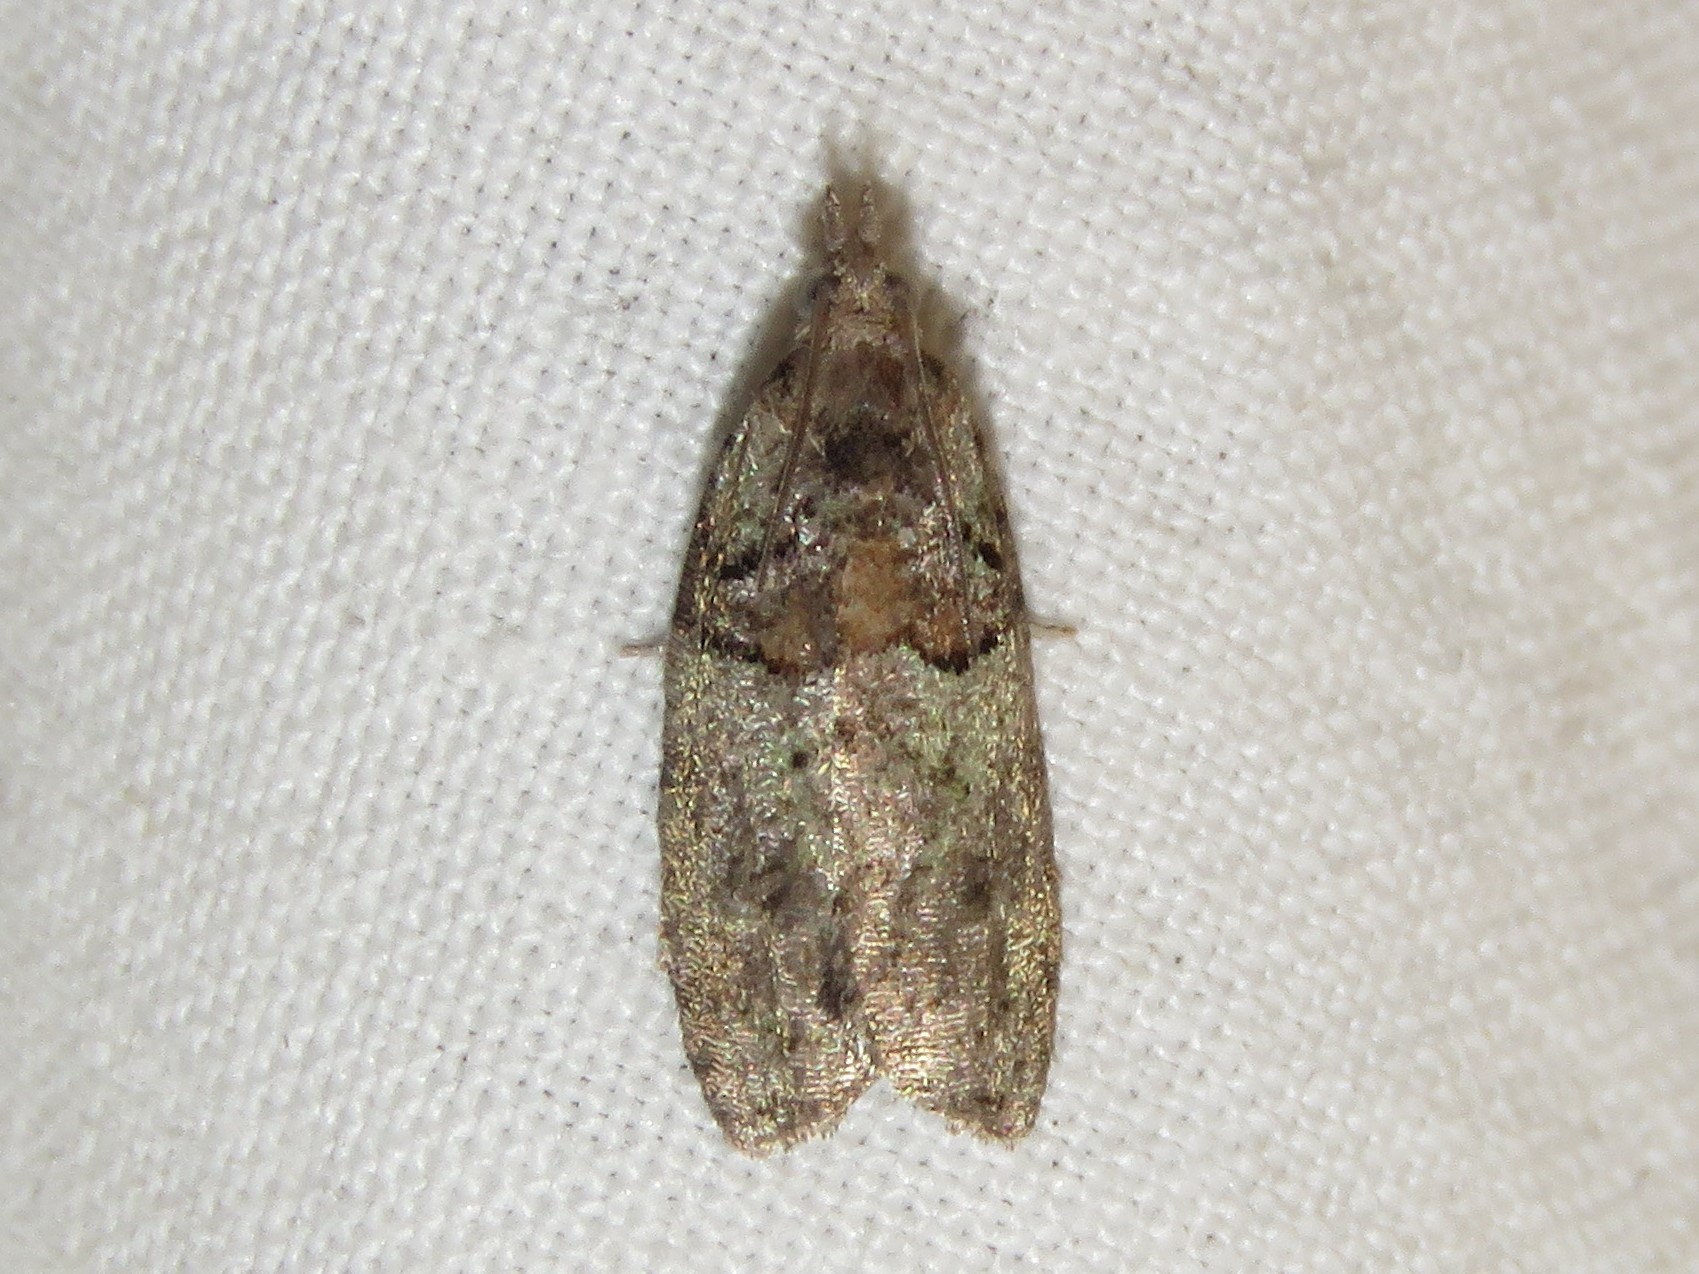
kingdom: Animalia
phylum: Arthropoda
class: Insecta
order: Lepidoptera
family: Tortricidae
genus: Epinotia
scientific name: Epinotia medioviridana
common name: Raspberry leaf-roller moth
